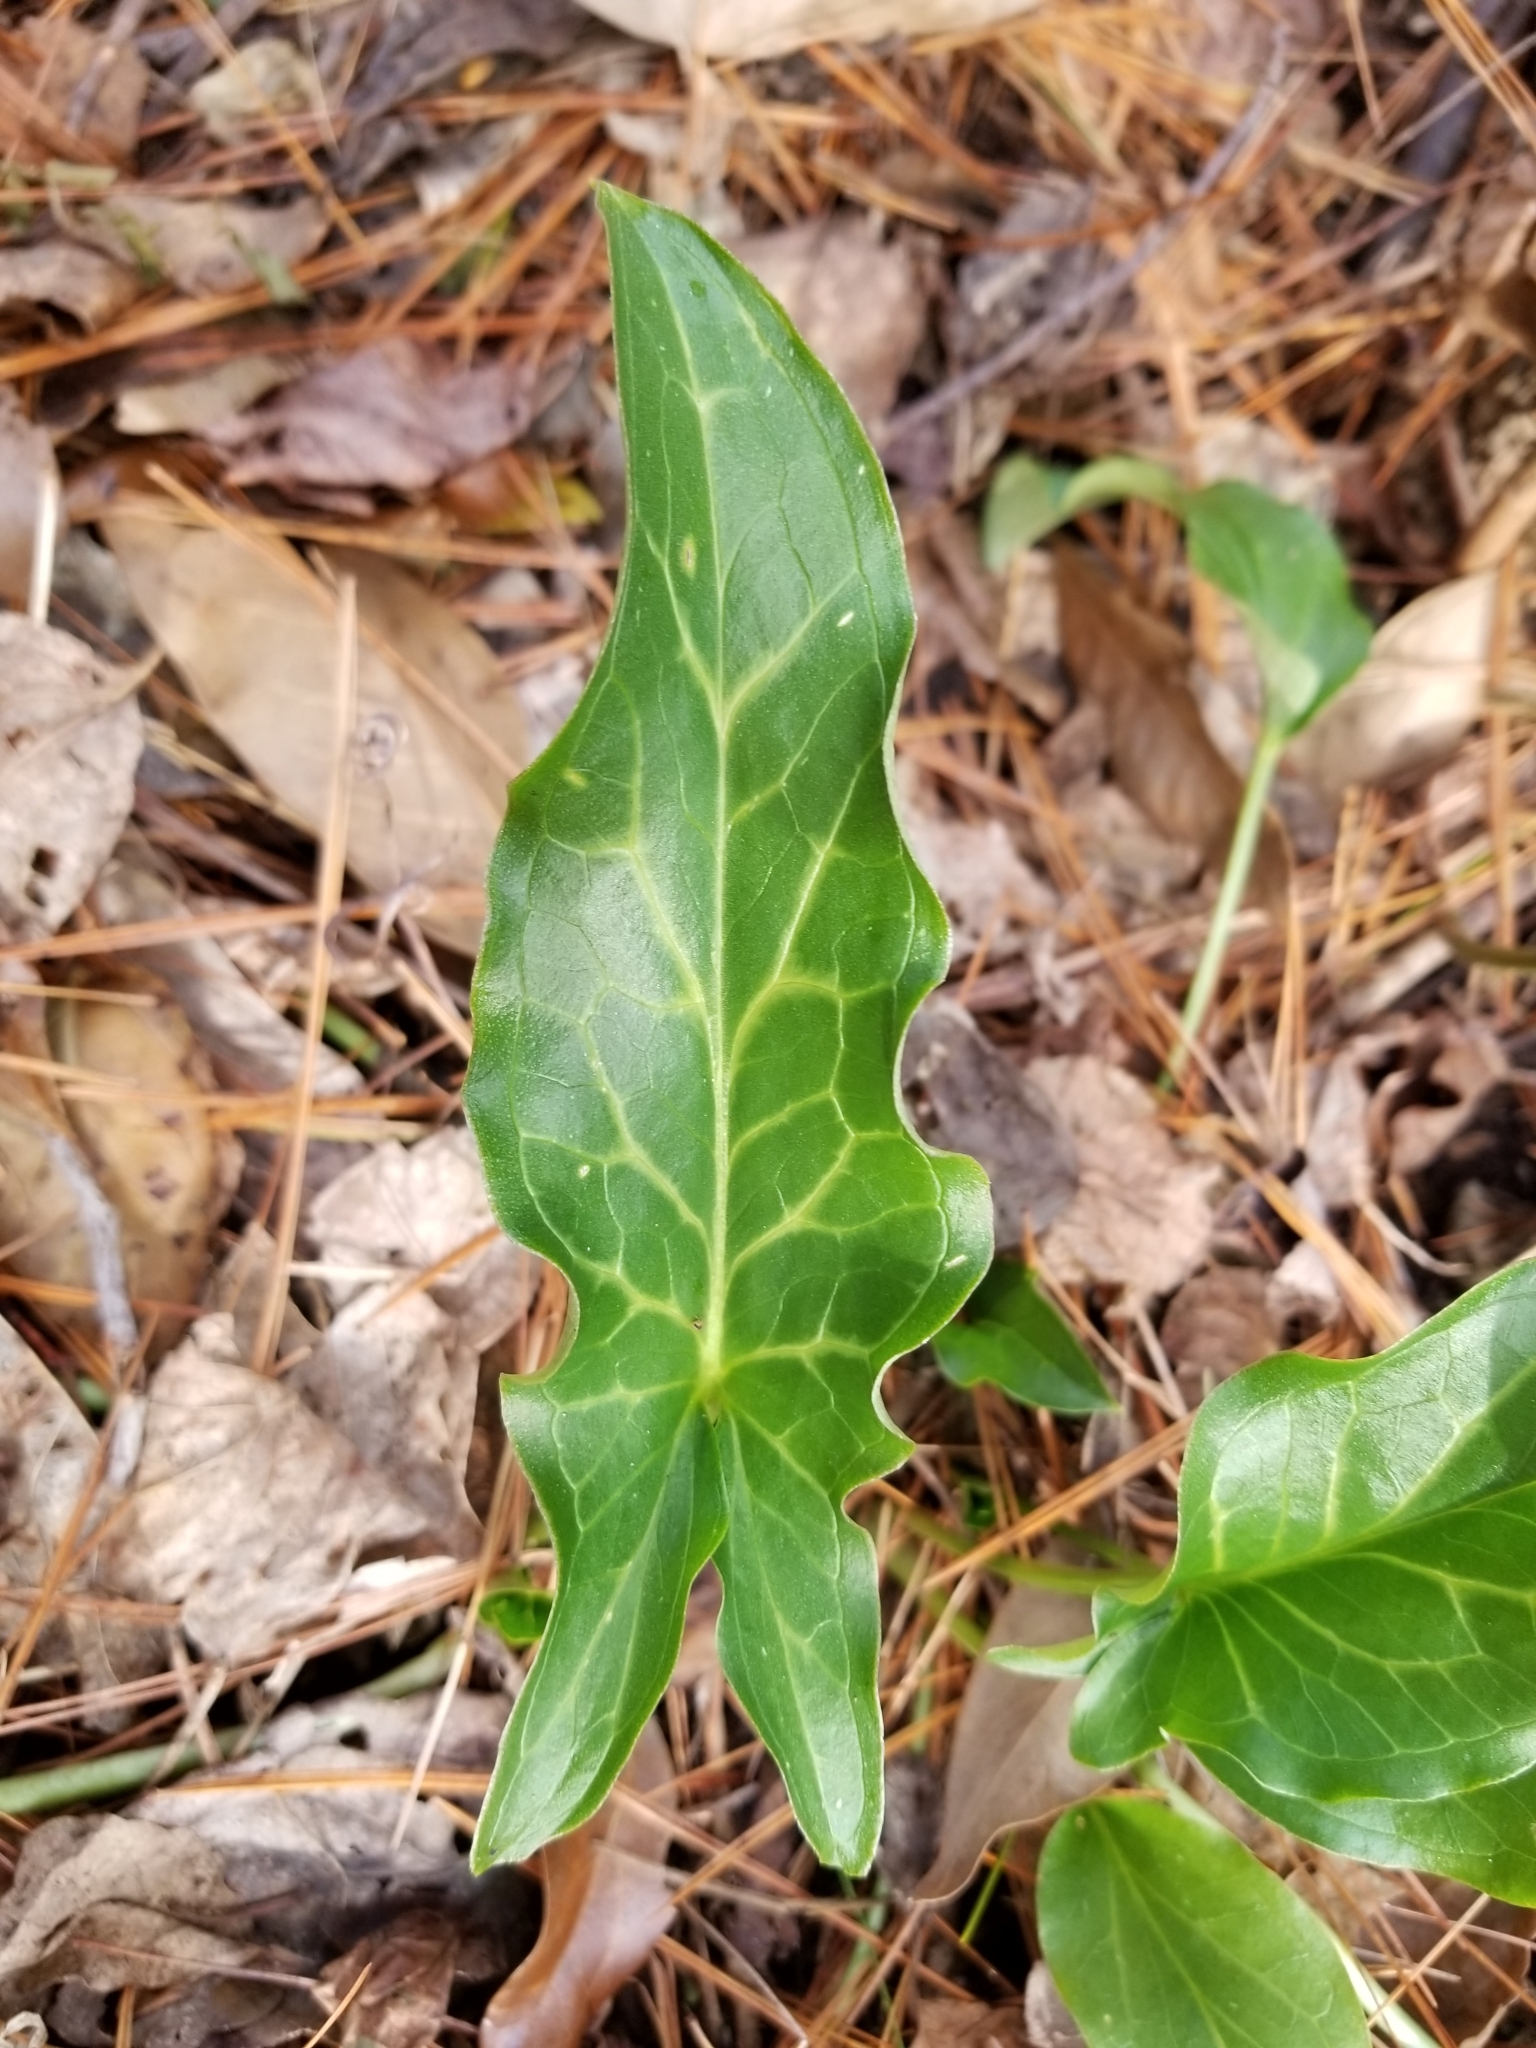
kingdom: Plantae
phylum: Tracheophyta
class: Liliopsida
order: Alismatales
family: Araceae
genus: Arum
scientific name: Arum italicum
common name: Italian lords-and-ladies
